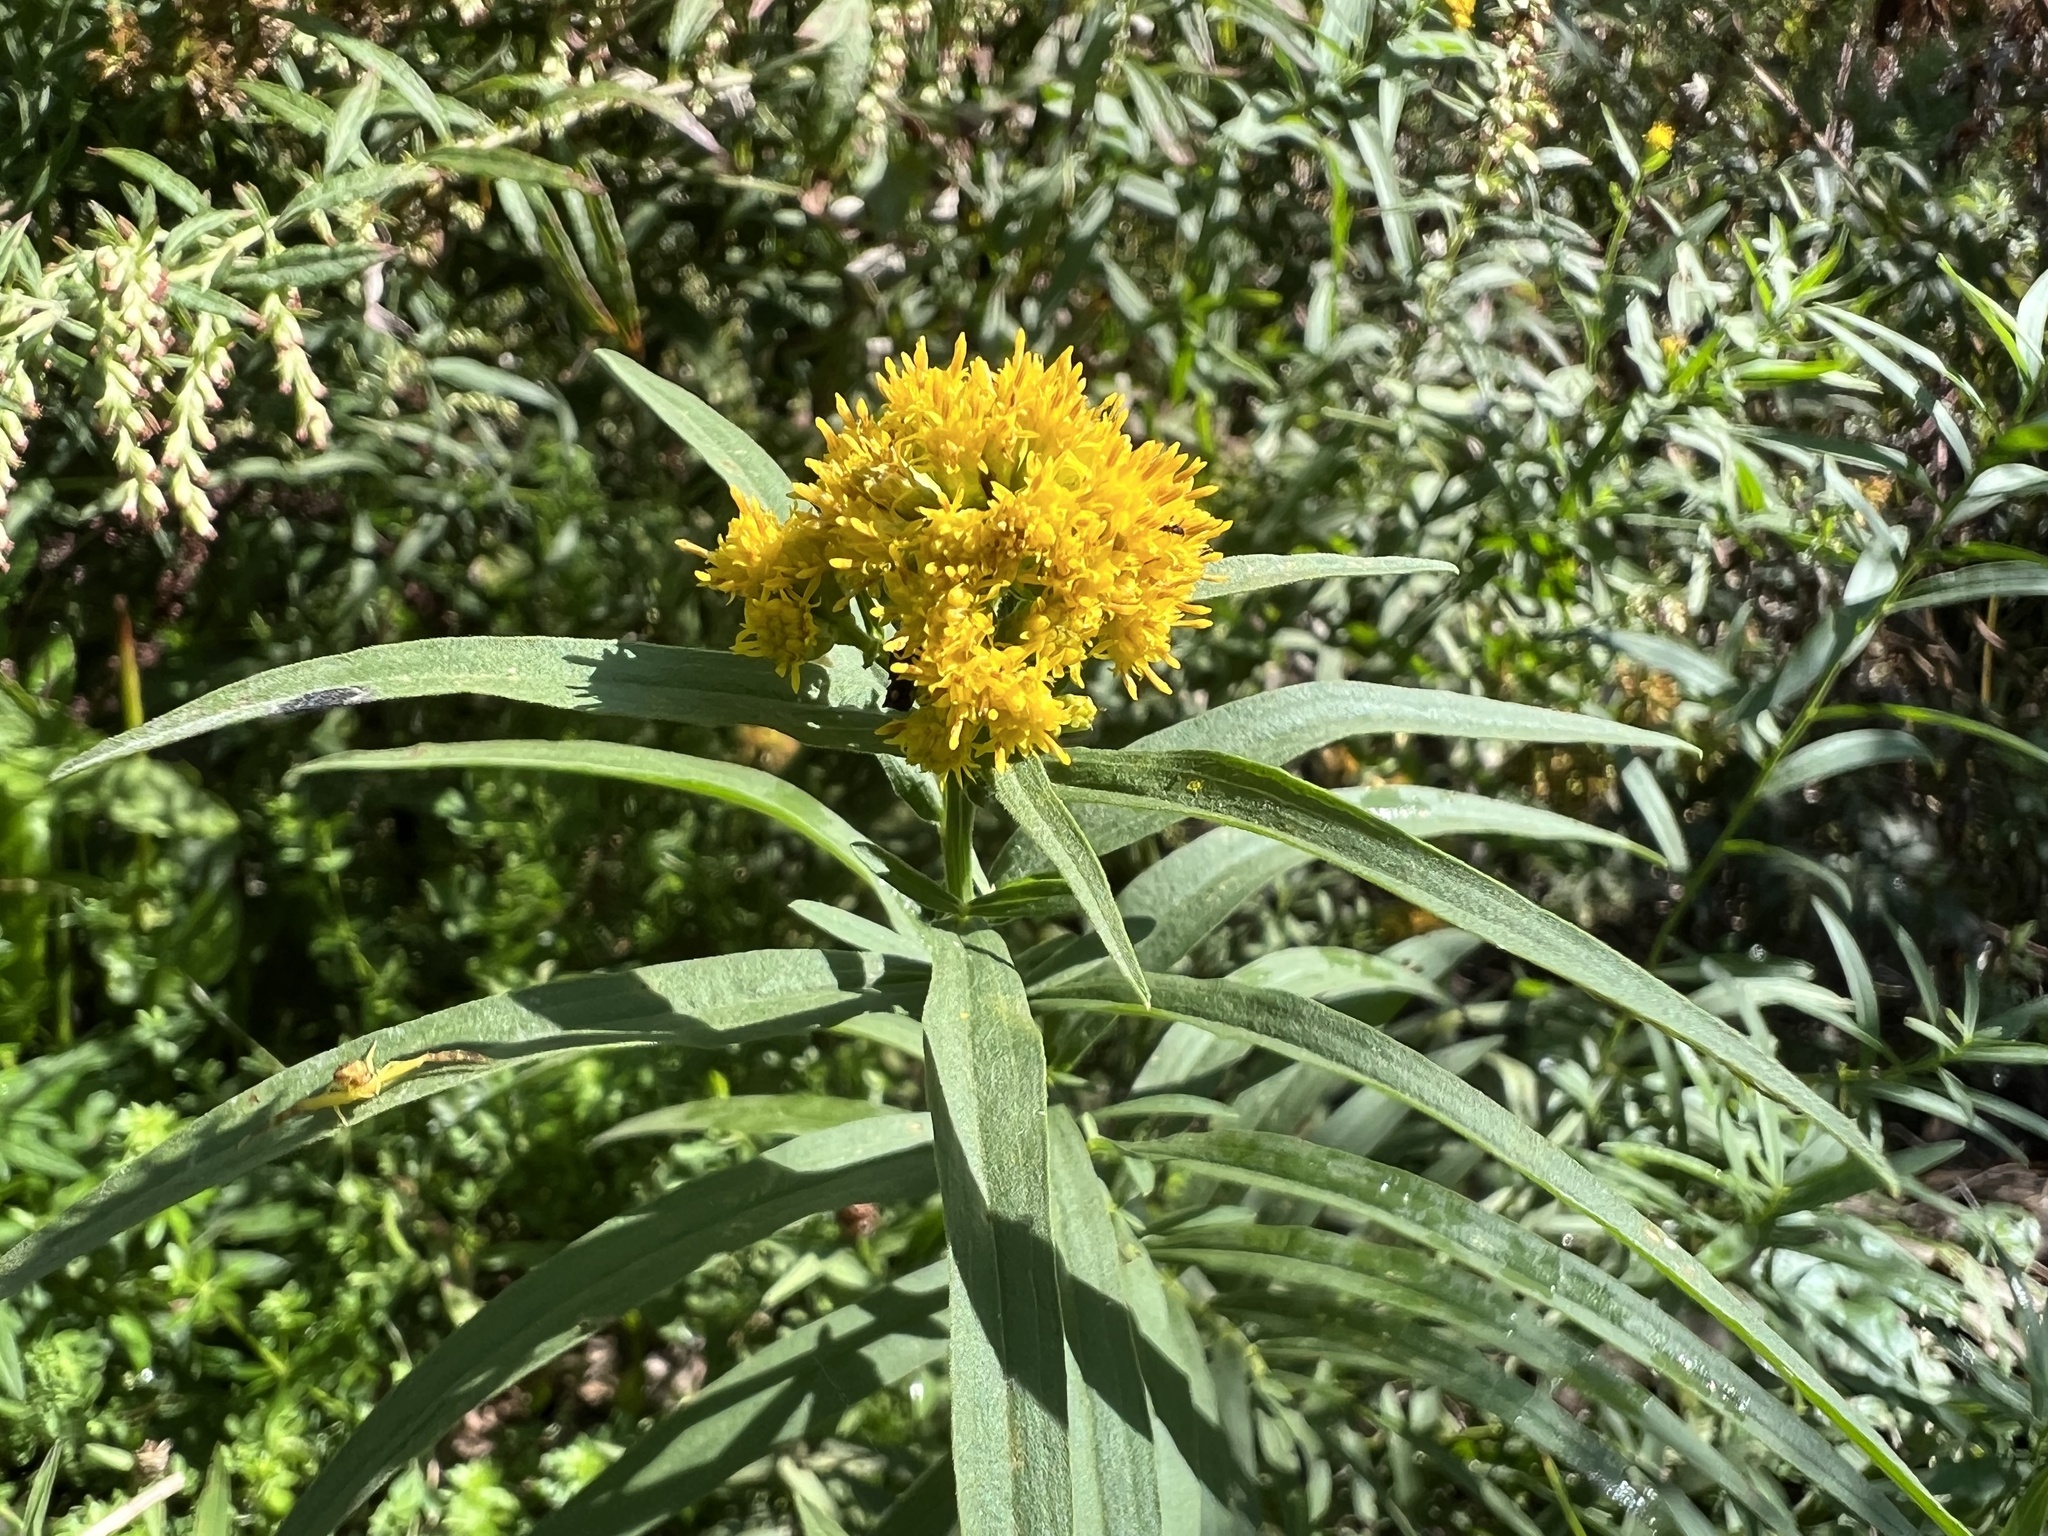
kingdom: Plantae
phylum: Tracheophyta
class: Magnoliopsida
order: Asterales
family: Asteraceae
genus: Euthamia
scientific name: Euthamia graminifolia
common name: Common goldentop
